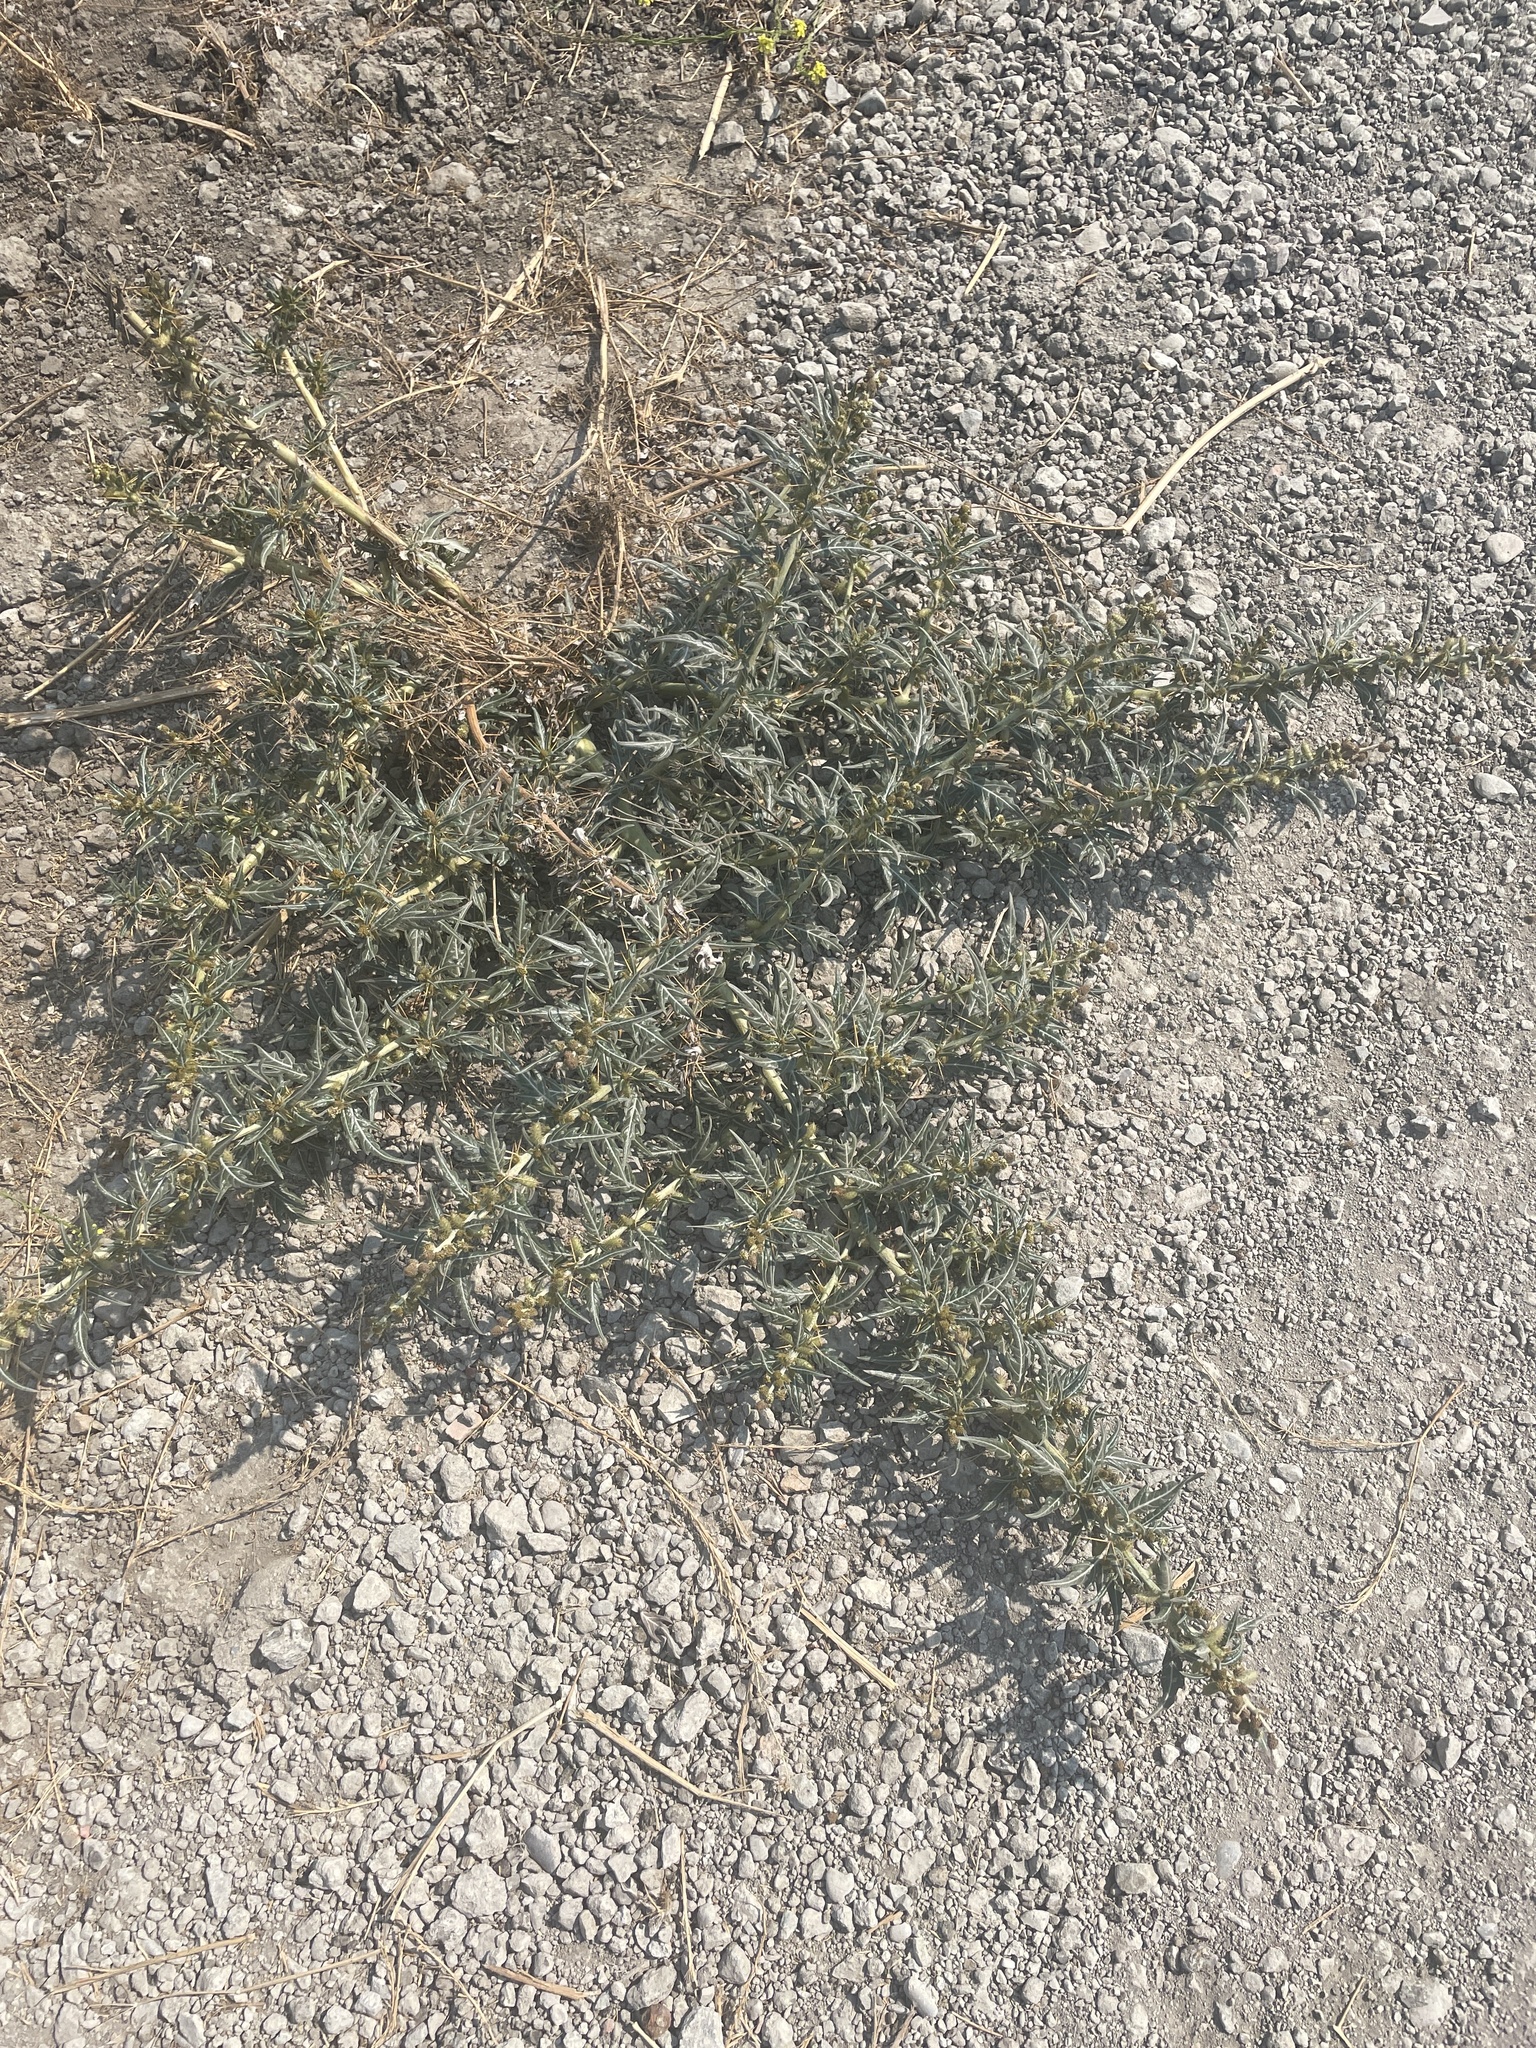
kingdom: Plantae
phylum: Tracheophyta
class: Magnoliopsida
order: Asterales
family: Asteraceae
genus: Xanthium
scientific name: Xanthium spinosum
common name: Spiny cocklebur
